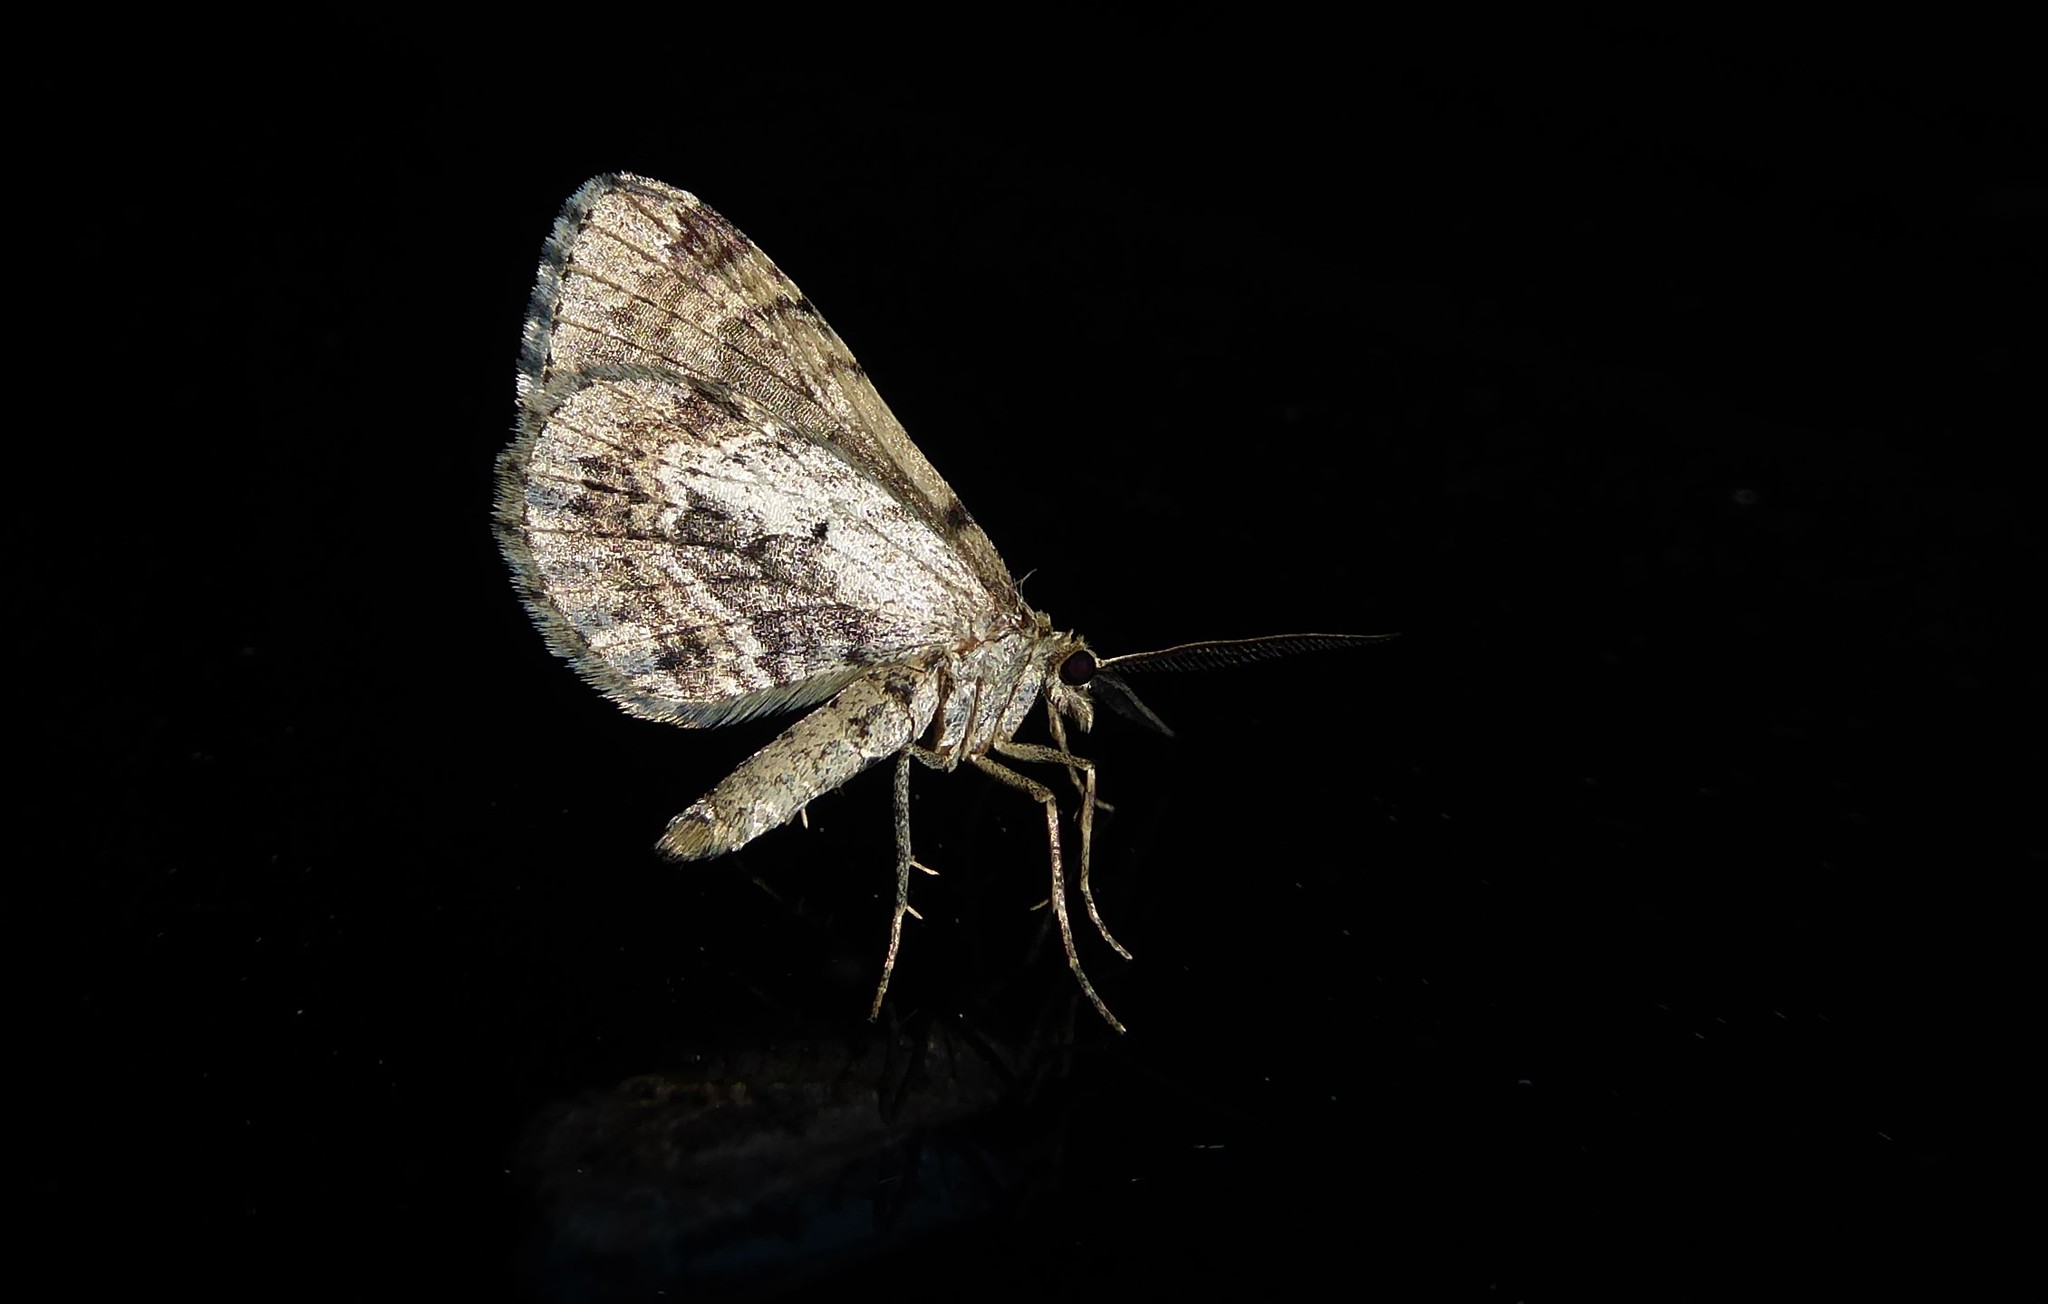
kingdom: Animalia
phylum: Arthropoda
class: Insecta
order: Lepidoptera
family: Geometridae
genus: Asaphodes
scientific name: Asaphodes aegrota
